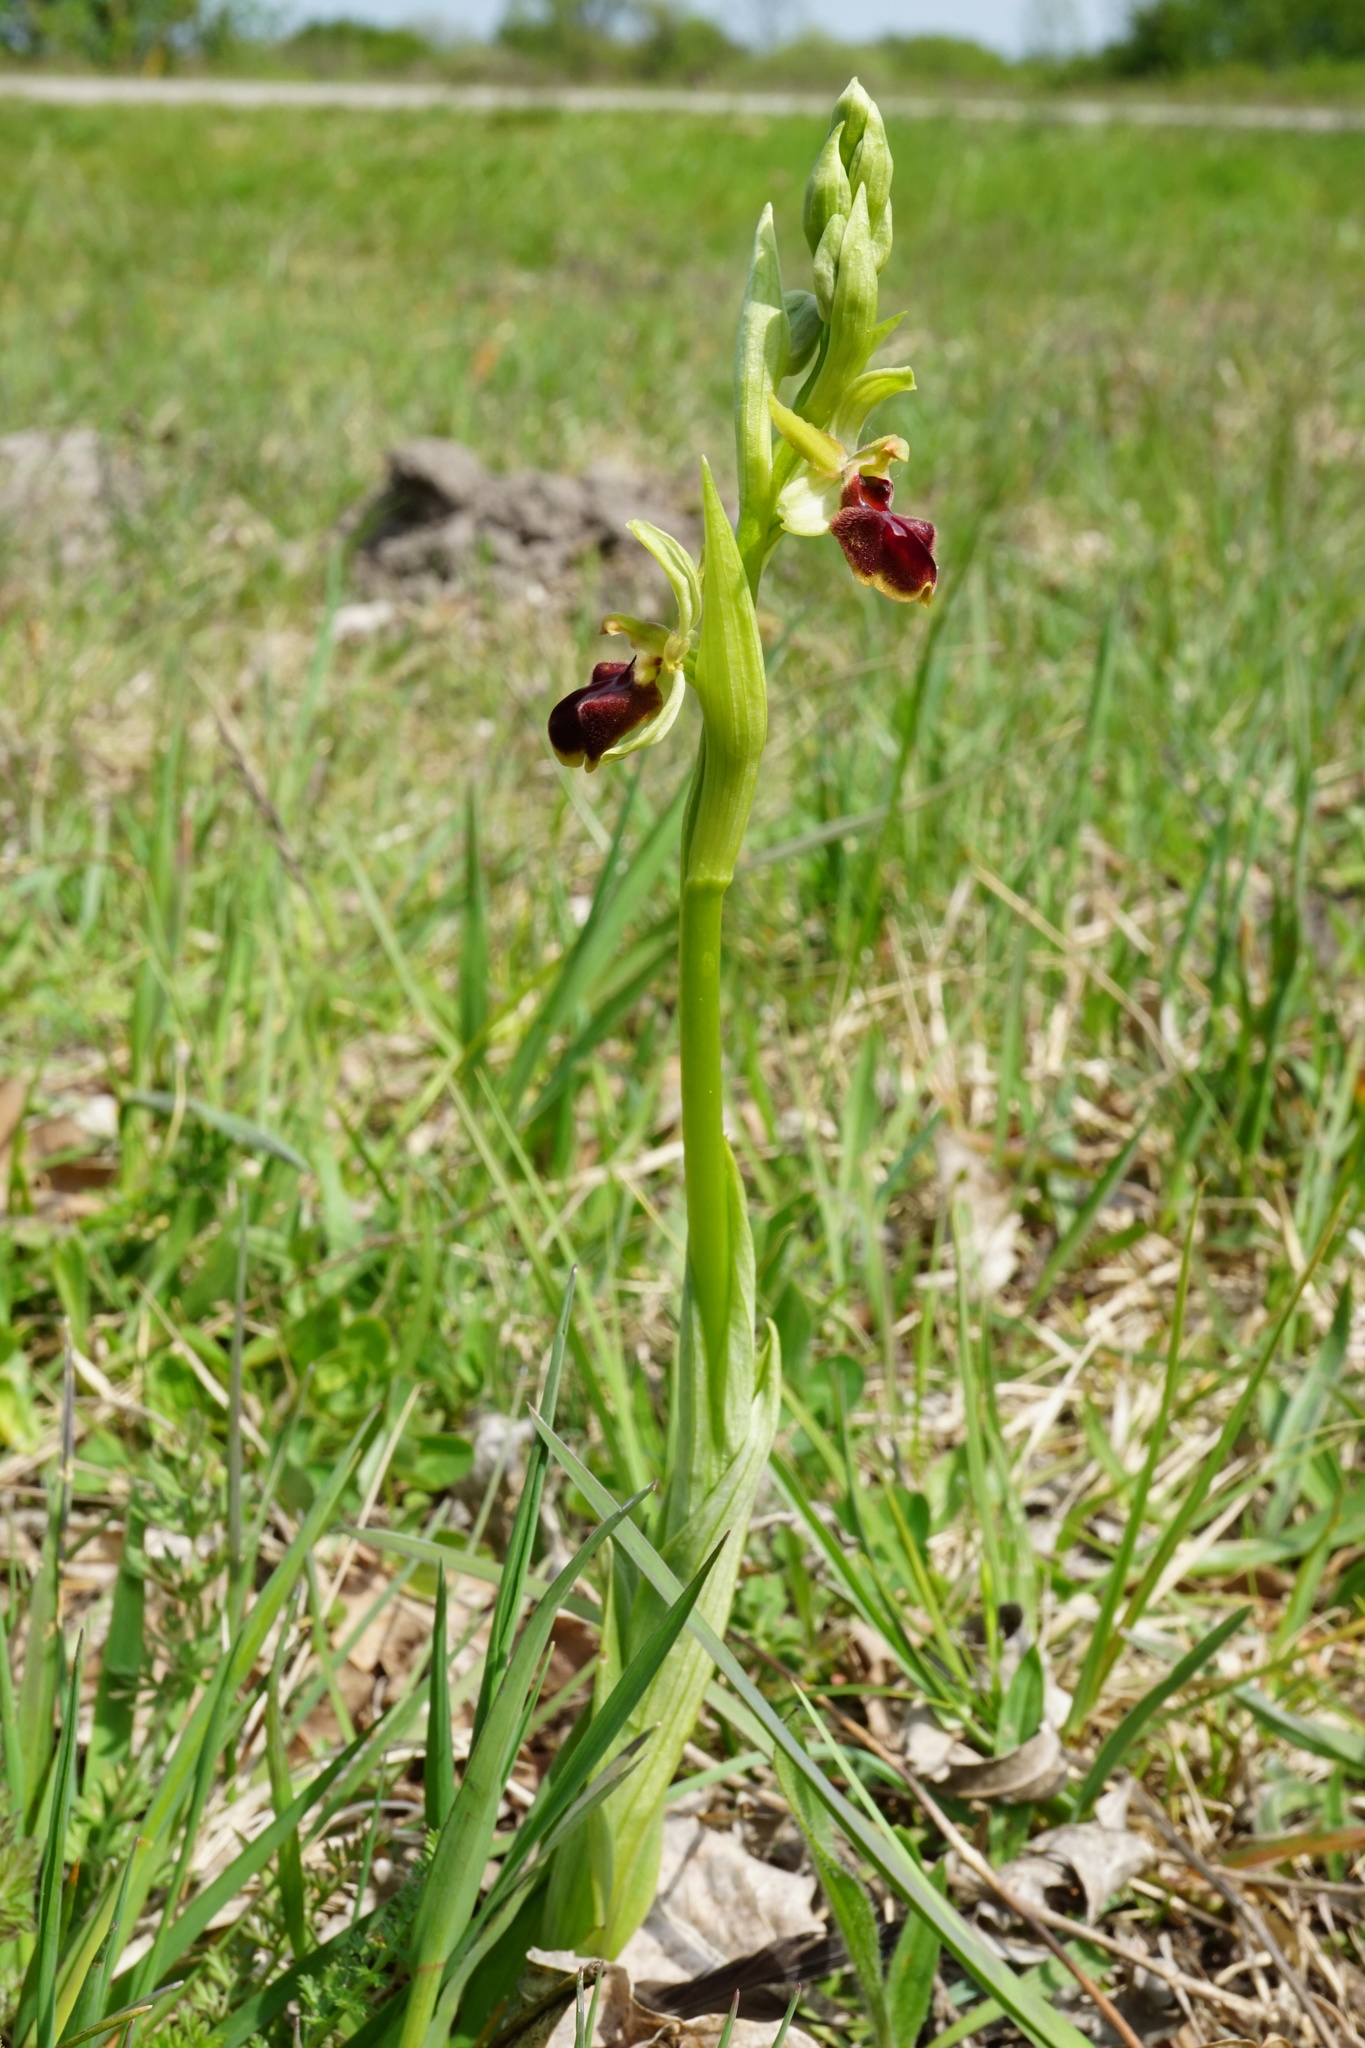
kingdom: Plantae
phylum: Tracheophyta
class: Liliopsida
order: Asparagales
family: Orchidaceae
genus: Ophrys
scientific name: Ophrys sphegodes
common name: Early spider-orchid
